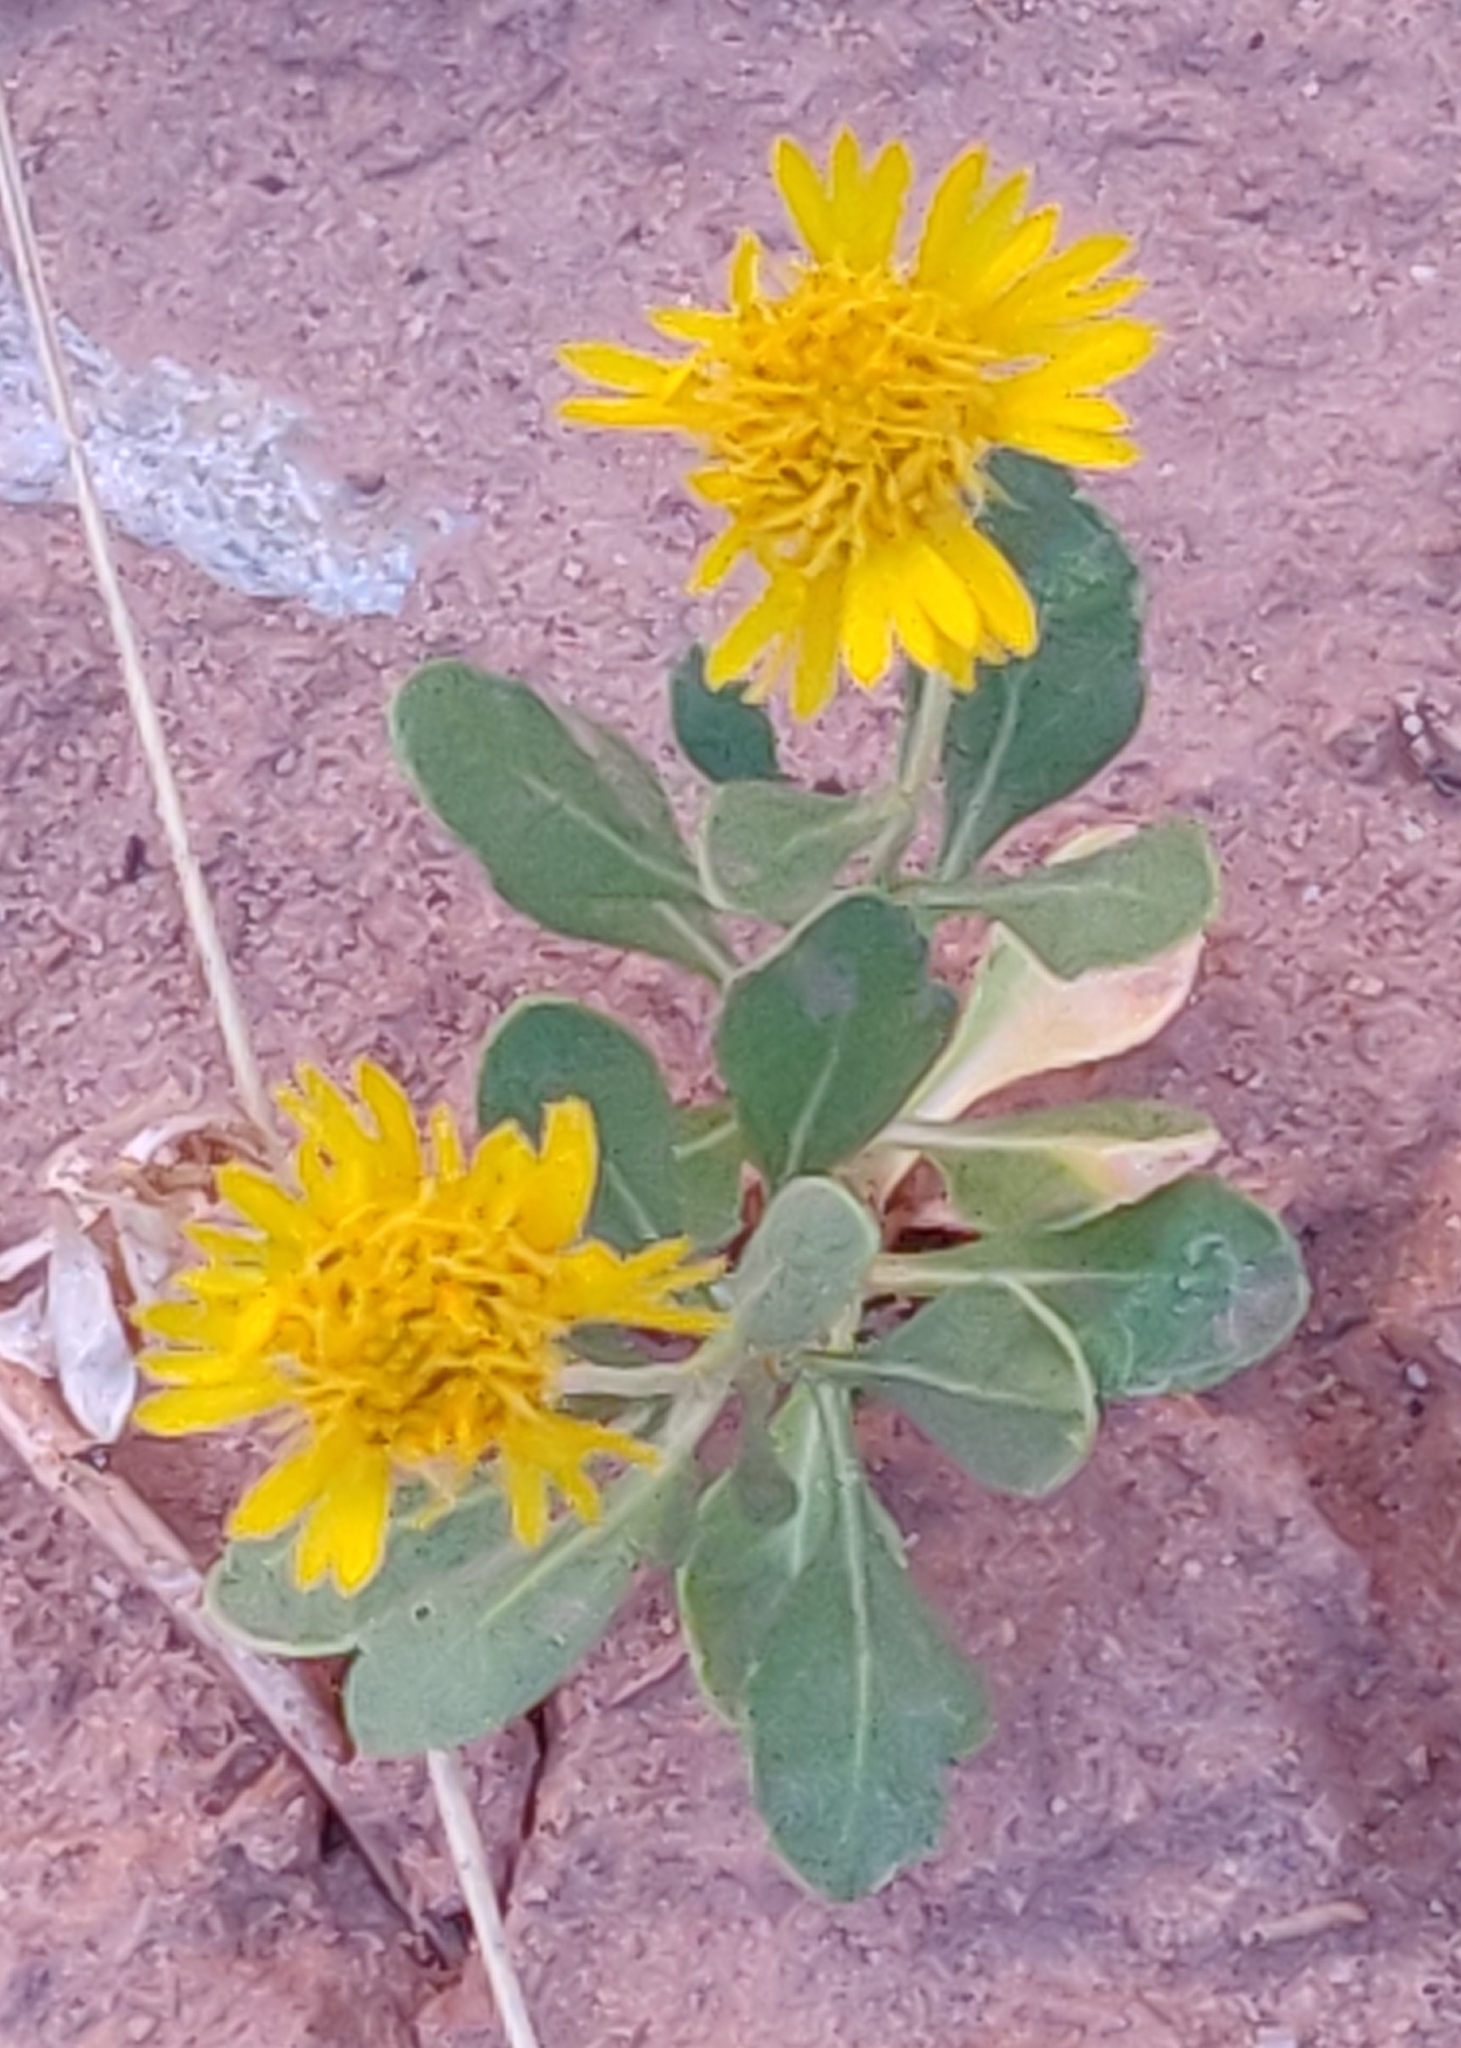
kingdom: Plantae
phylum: Tracheophyta
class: Magnoliopsida
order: Asterales
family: Asteraceae
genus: Gaillardia
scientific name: Gaillardia spathulata
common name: Basin blanket-flower
